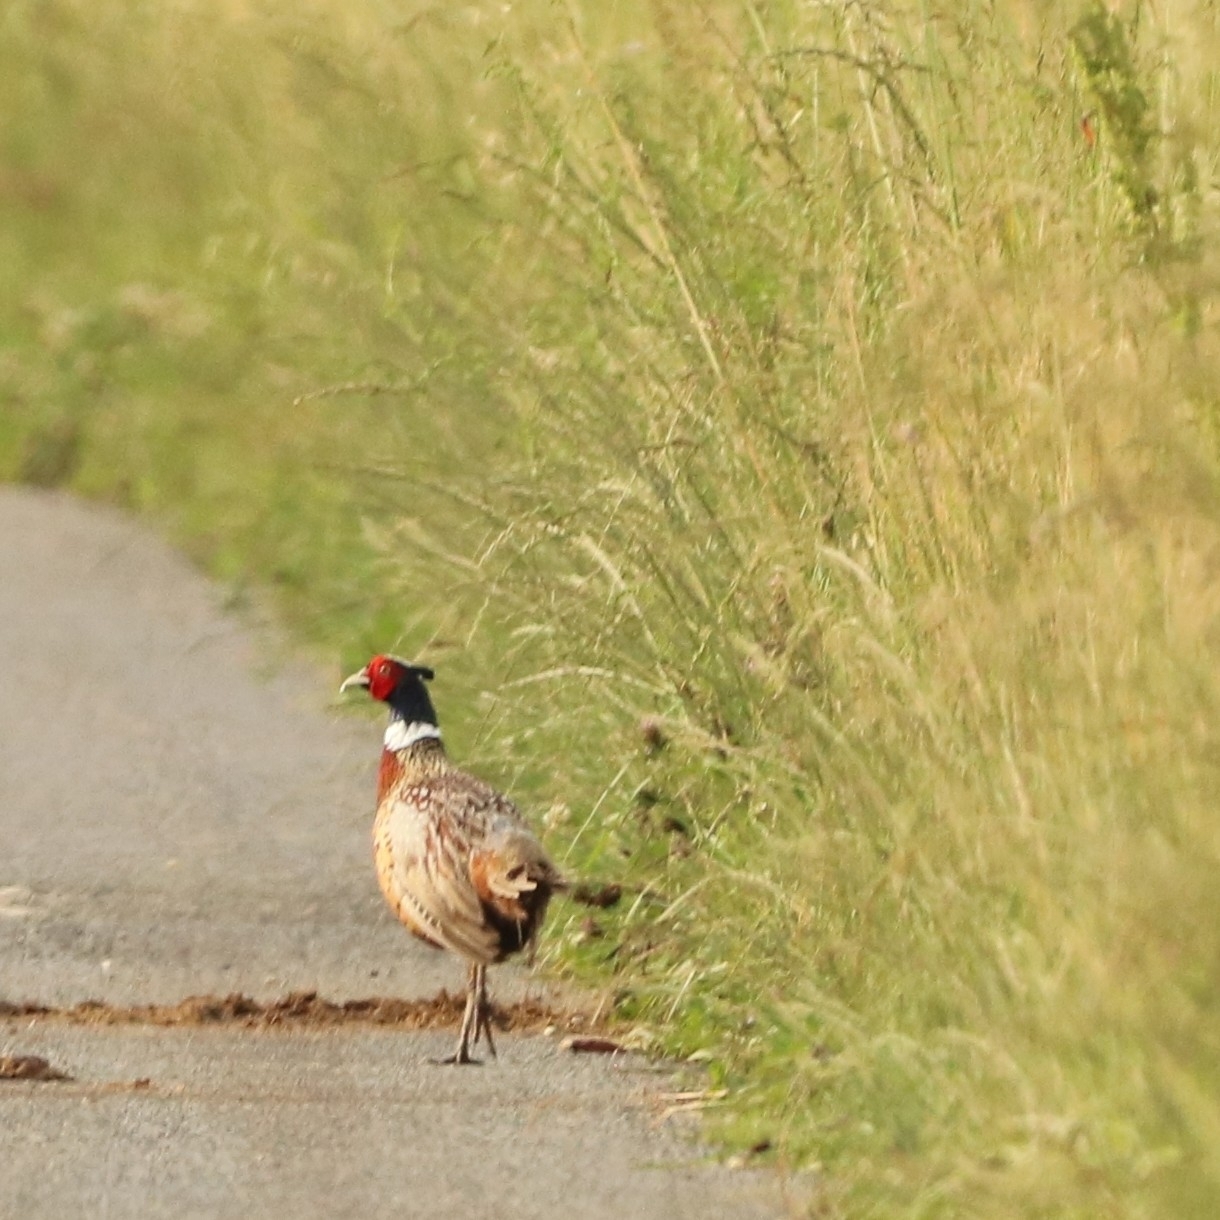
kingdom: Animalia
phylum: Chordata
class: Aves
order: Galliformes
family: Phasianidae
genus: Phasianus
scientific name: Phasianus colchicus
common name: Common pheasant
